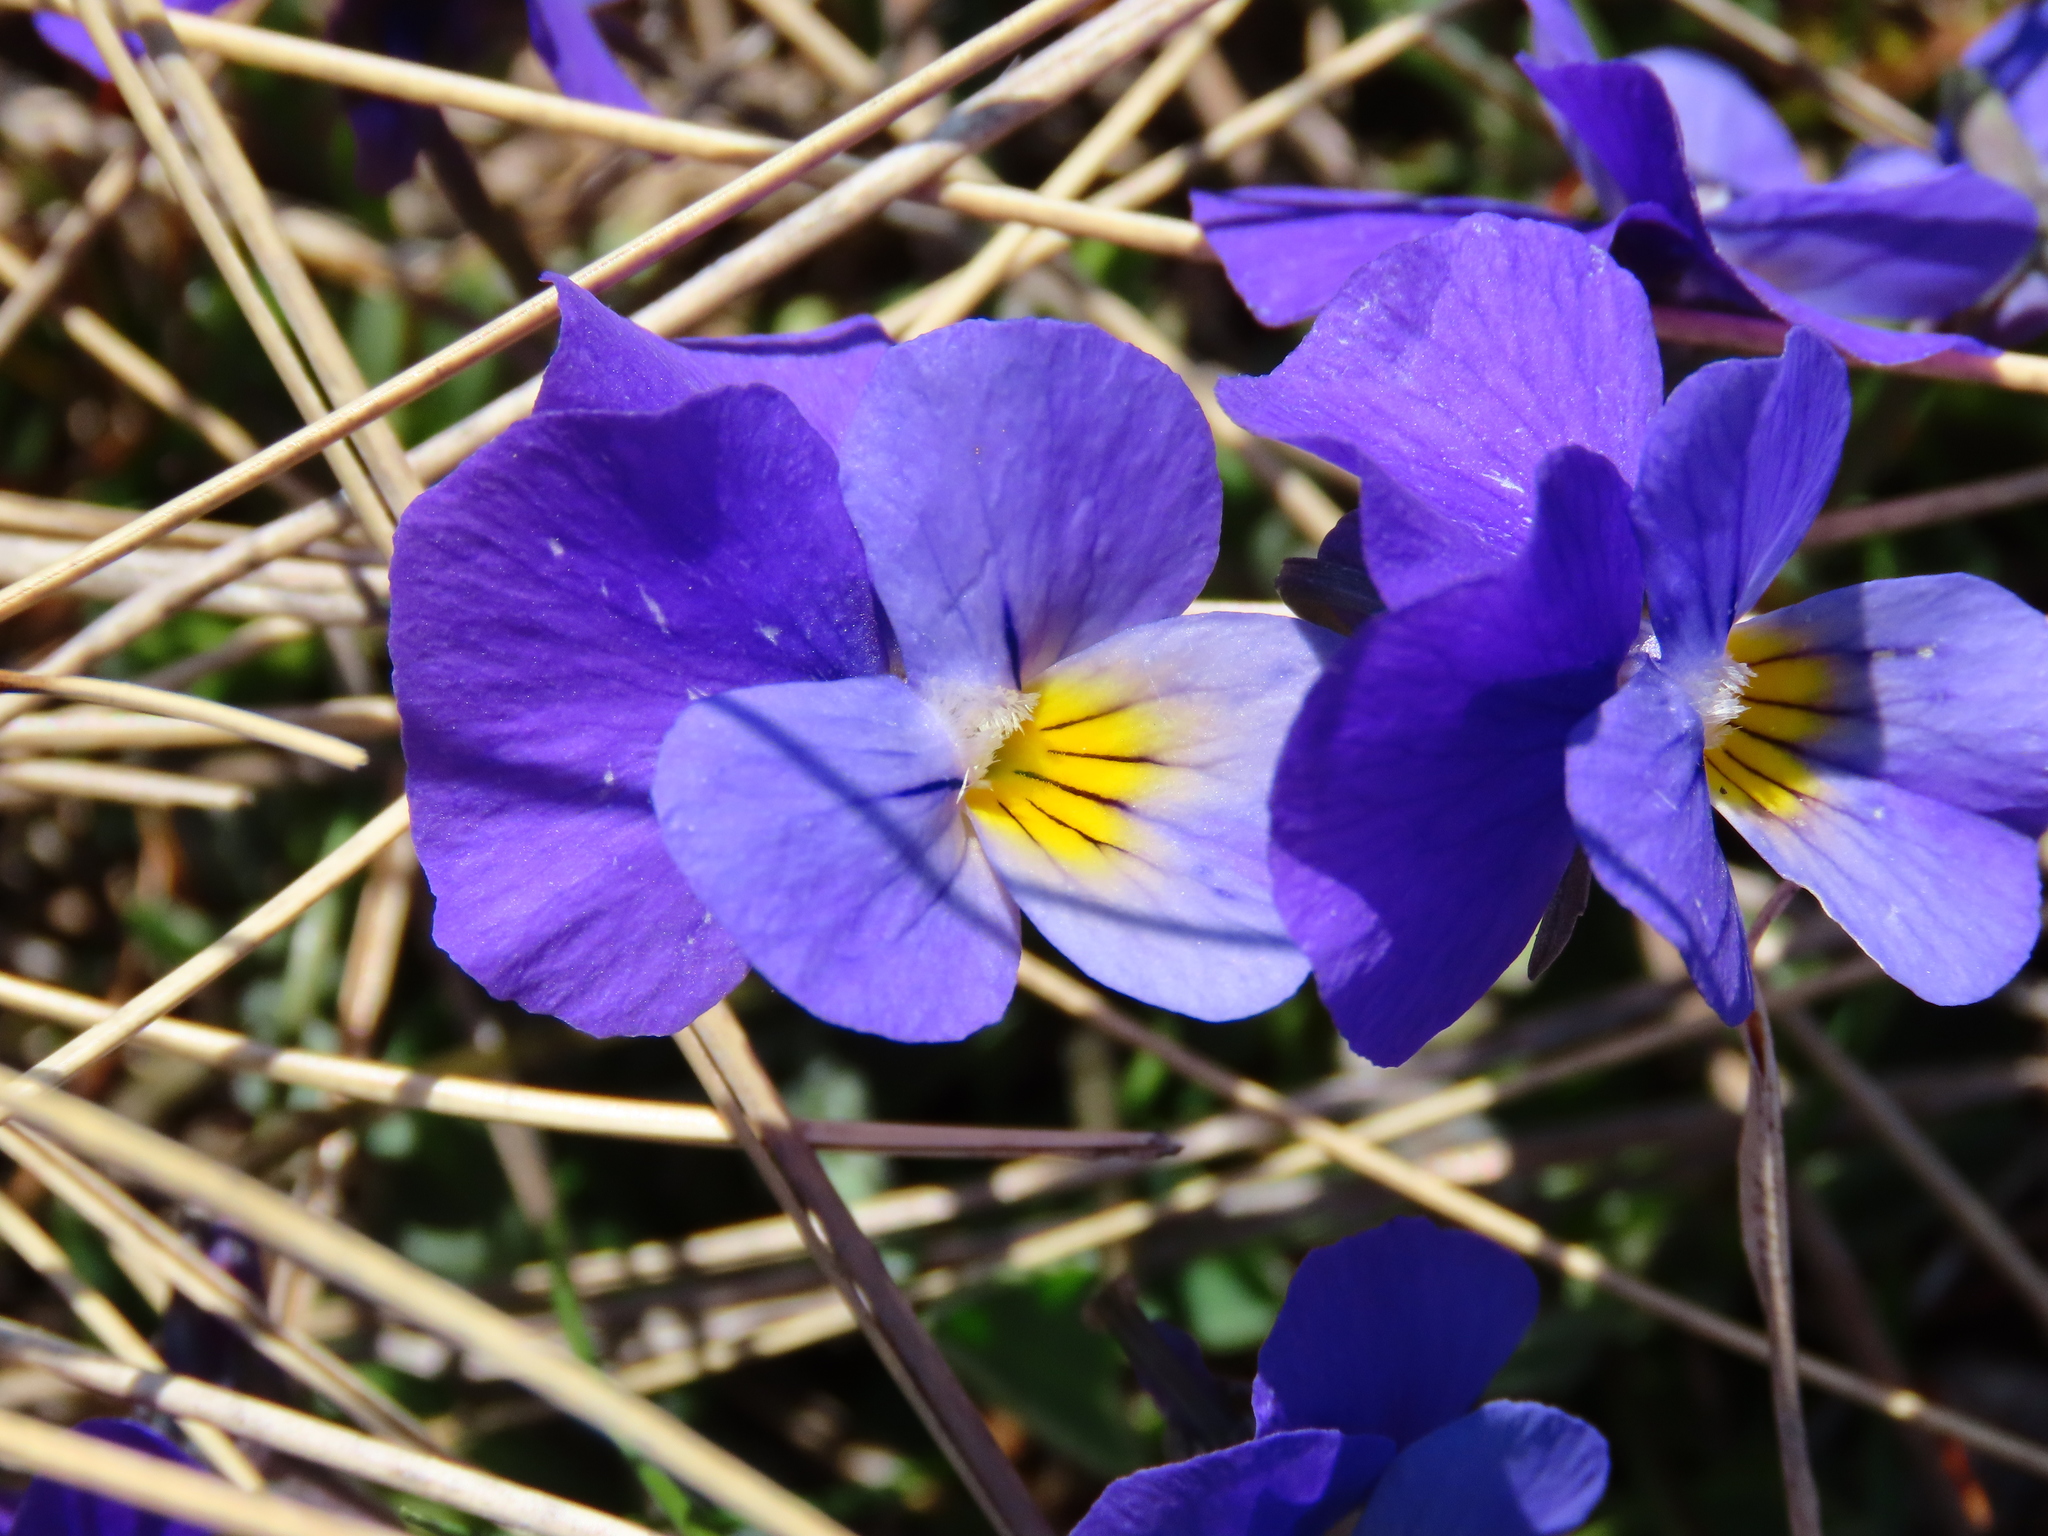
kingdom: Plantae
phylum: Tracheophyta
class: Magnoliopsida
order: Malpighiales
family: Violaceae
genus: Viola
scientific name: Viola eugeniae
